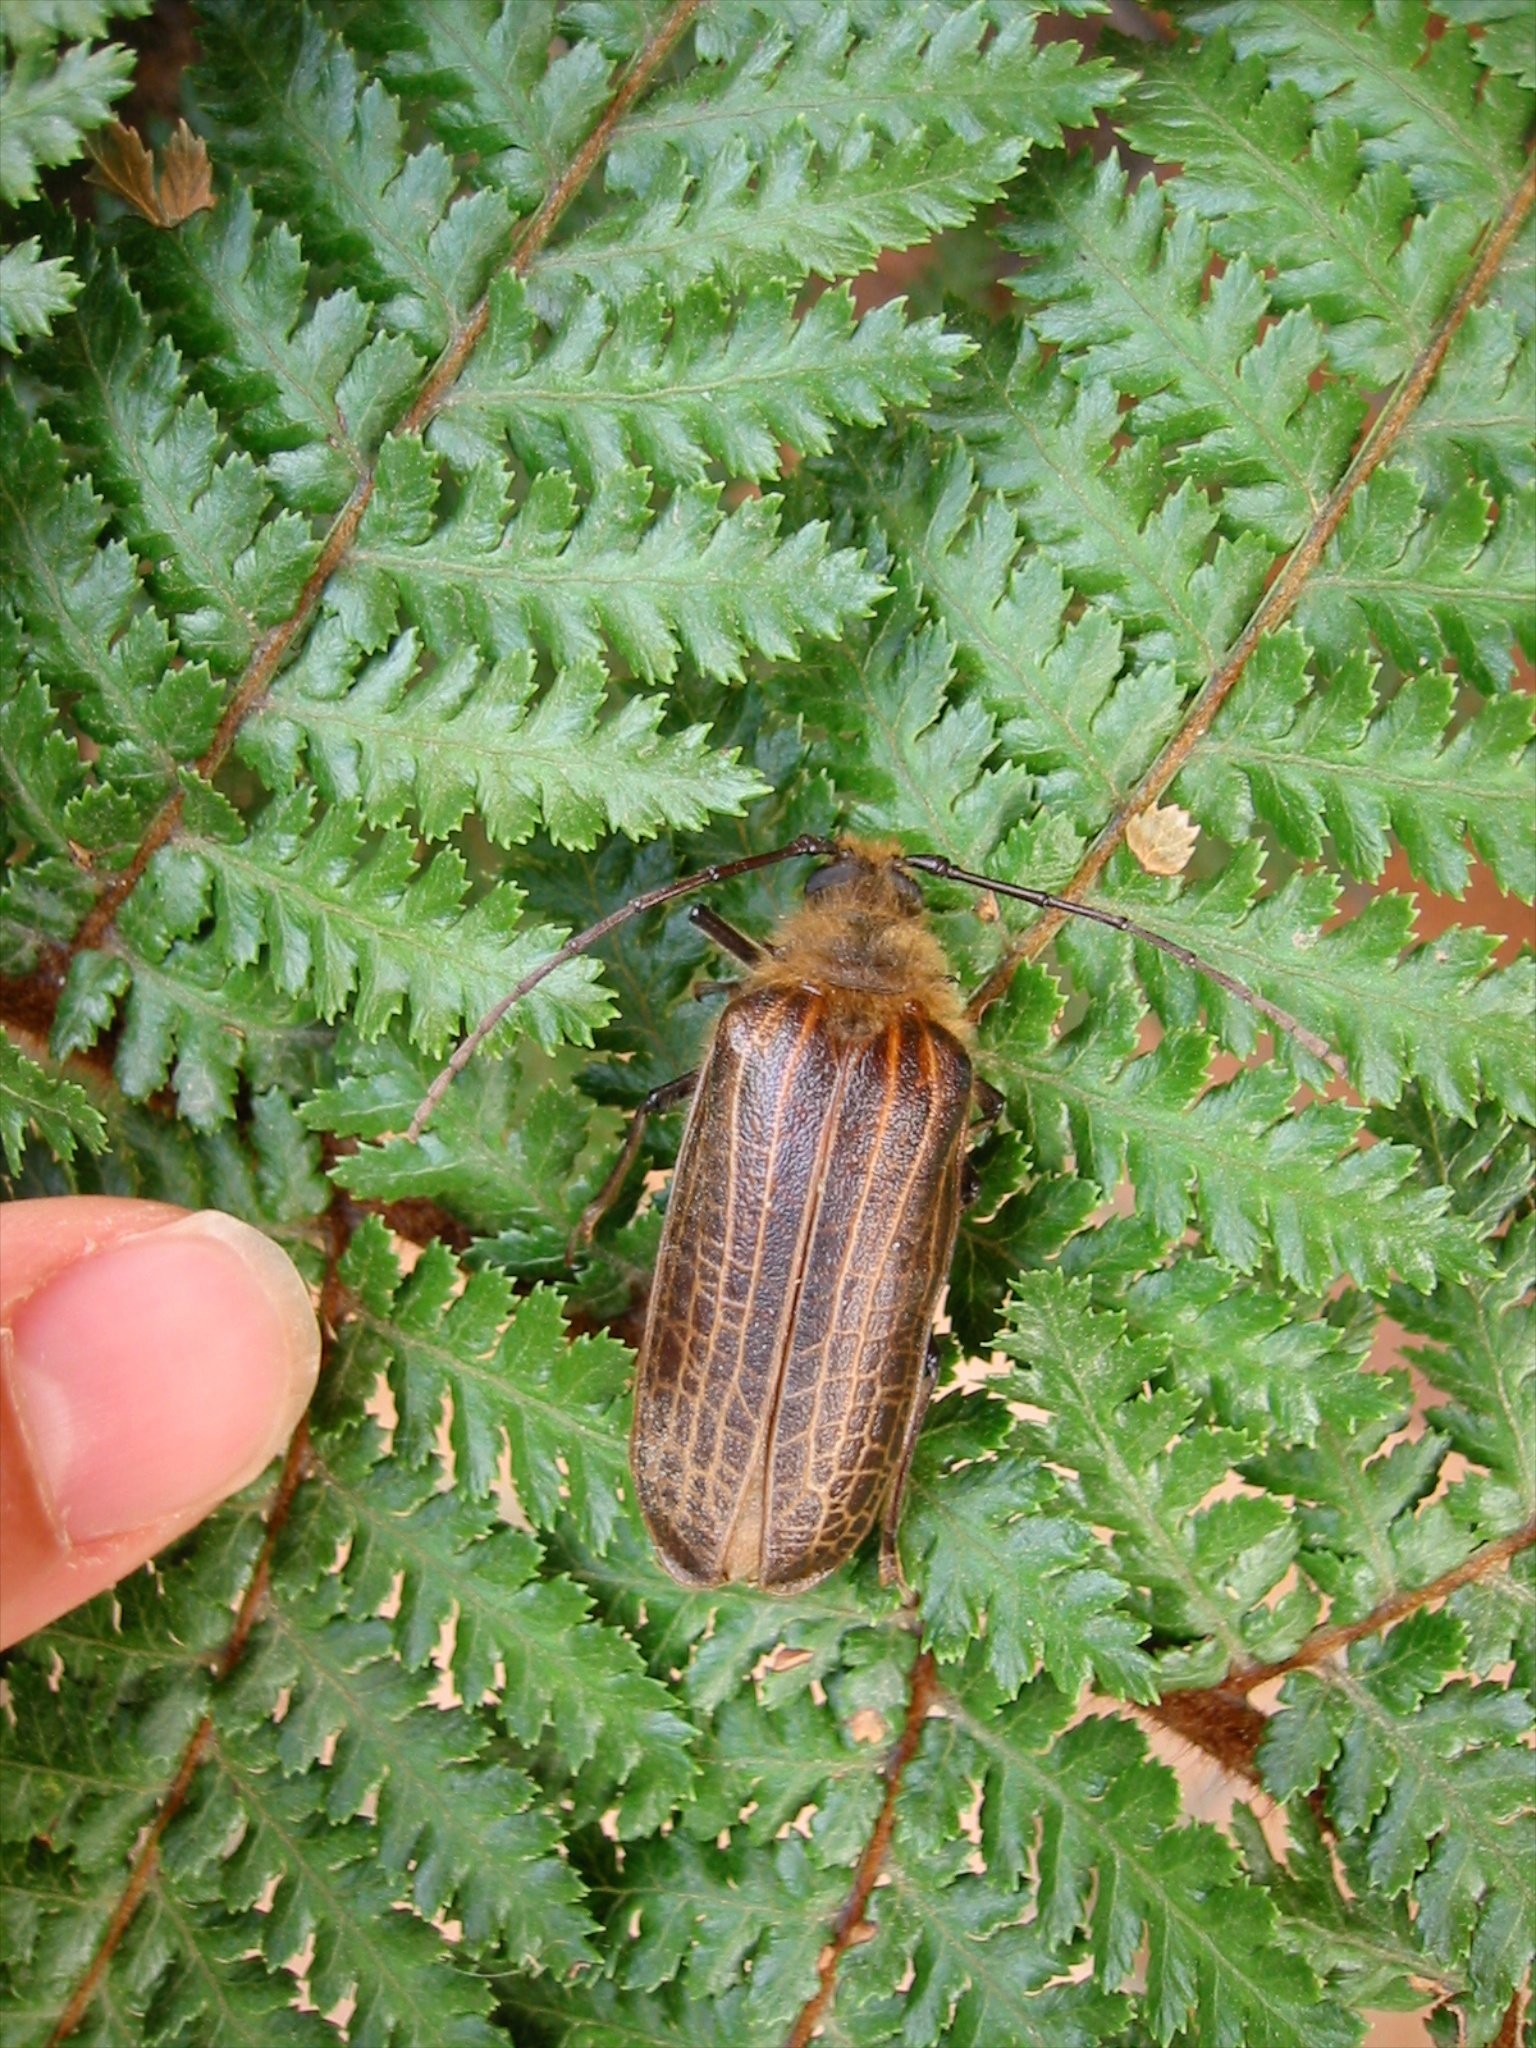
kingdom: Animalia
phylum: Arthropoda
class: Insecta
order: Coleoptera
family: Cerambycidae
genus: Prionoplus
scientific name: Prionoplus reticularis
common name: Huhu beetle
